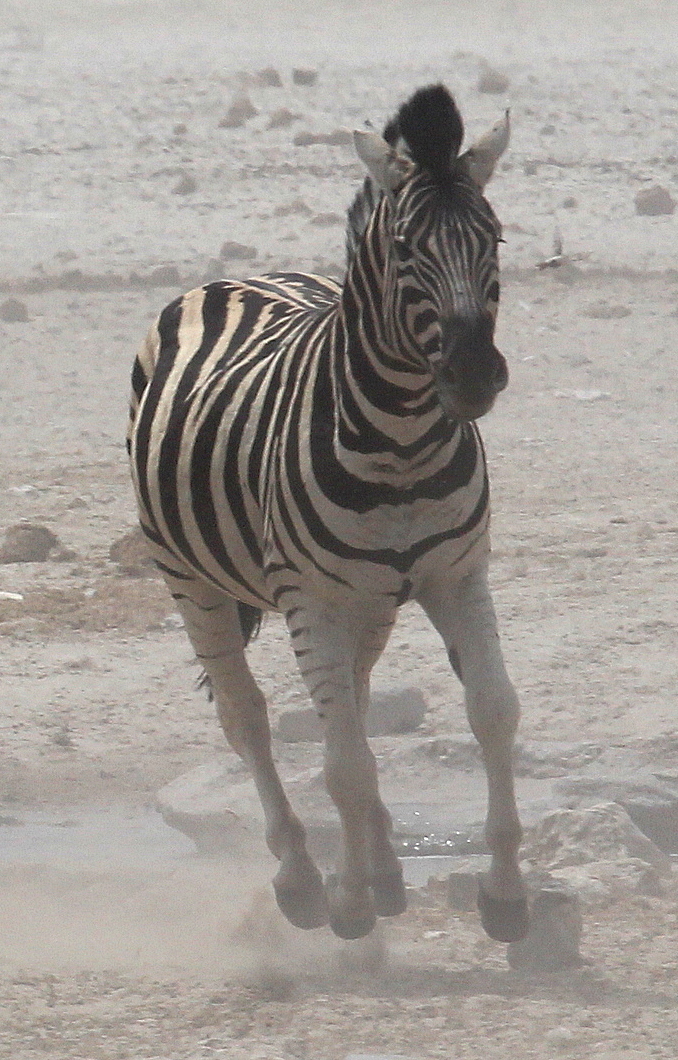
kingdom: Animalia
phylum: Chordata
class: Mammalia
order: Perissodactyla
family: Equidae
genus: Equus
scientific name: Equus quagga
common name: Plains zebra
